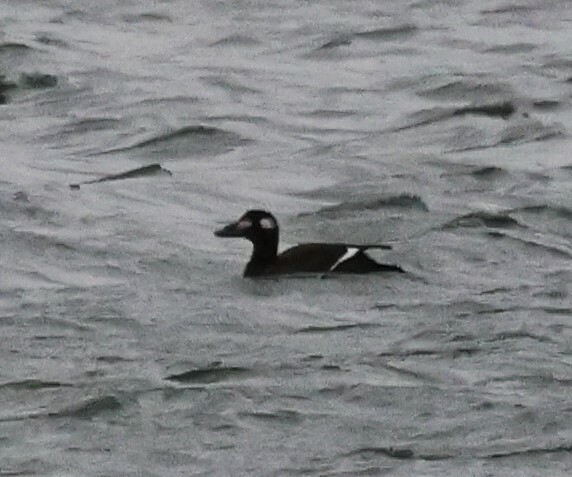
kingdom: Animalia
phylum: Chordata
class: Aves
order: Anseriformes
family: Anatidae
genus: Melanitta
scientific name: Melanitta deglandi
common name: White-winged scoter
